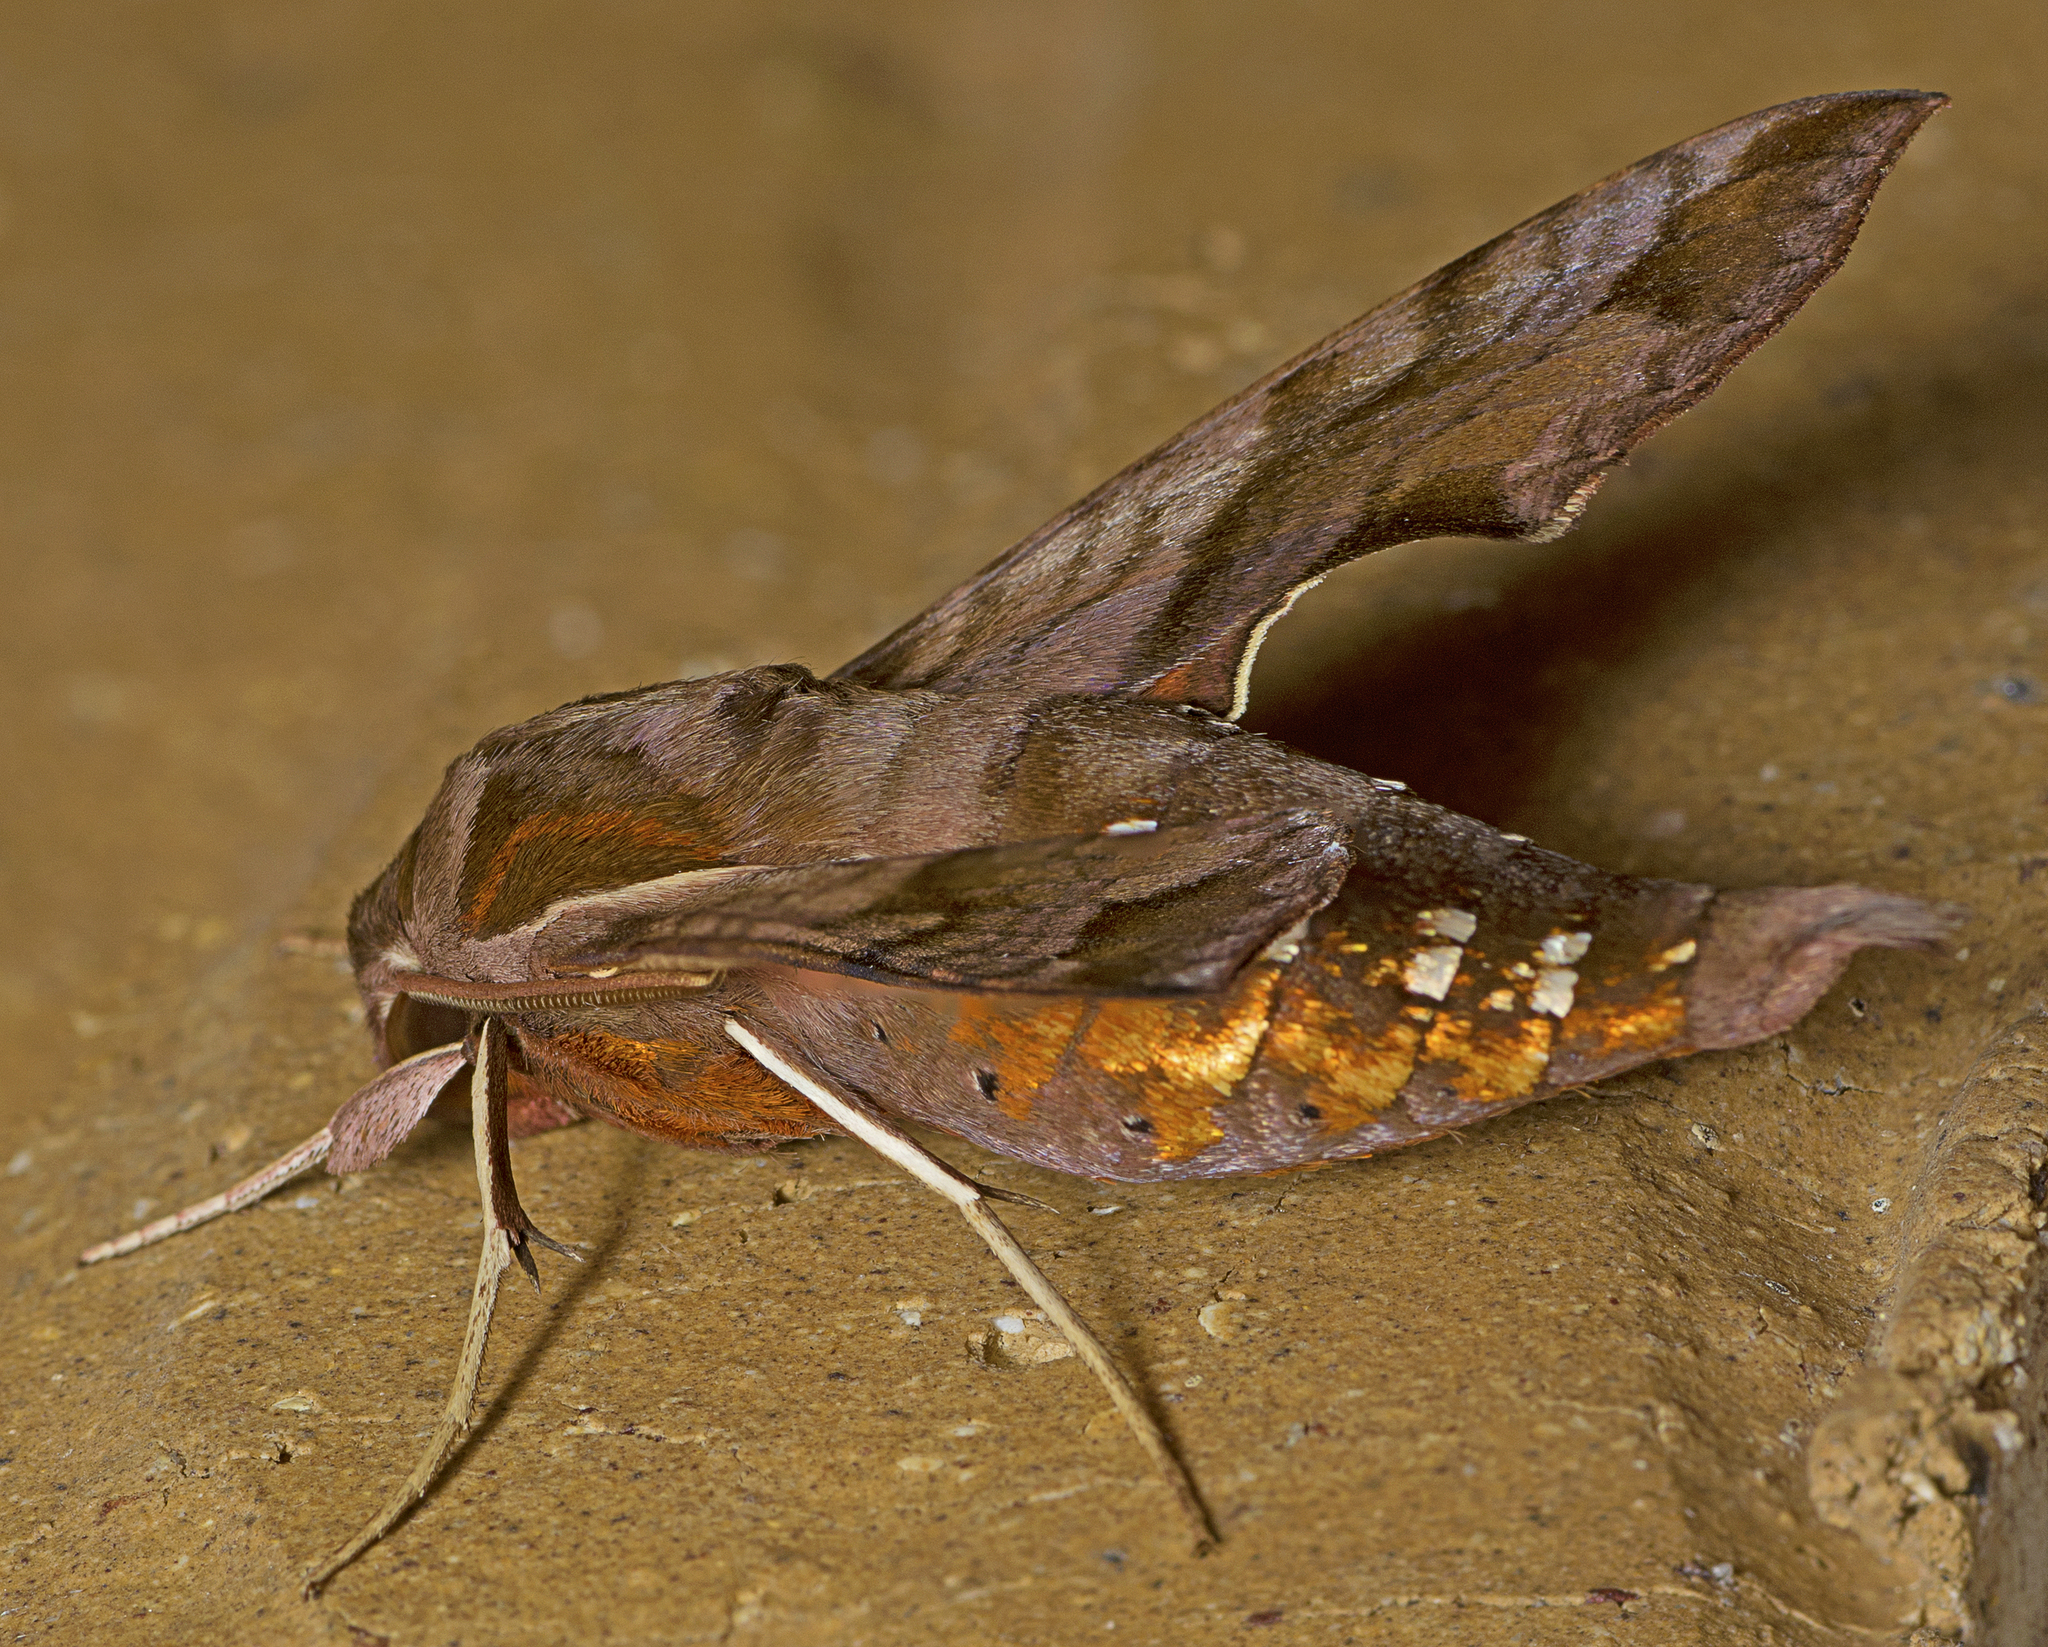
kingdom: Animalia
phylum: Arthropoda
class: Insecta
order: Lepidoptera
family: Sphingidae
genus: Hippotion
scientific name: Hippotion brennus
